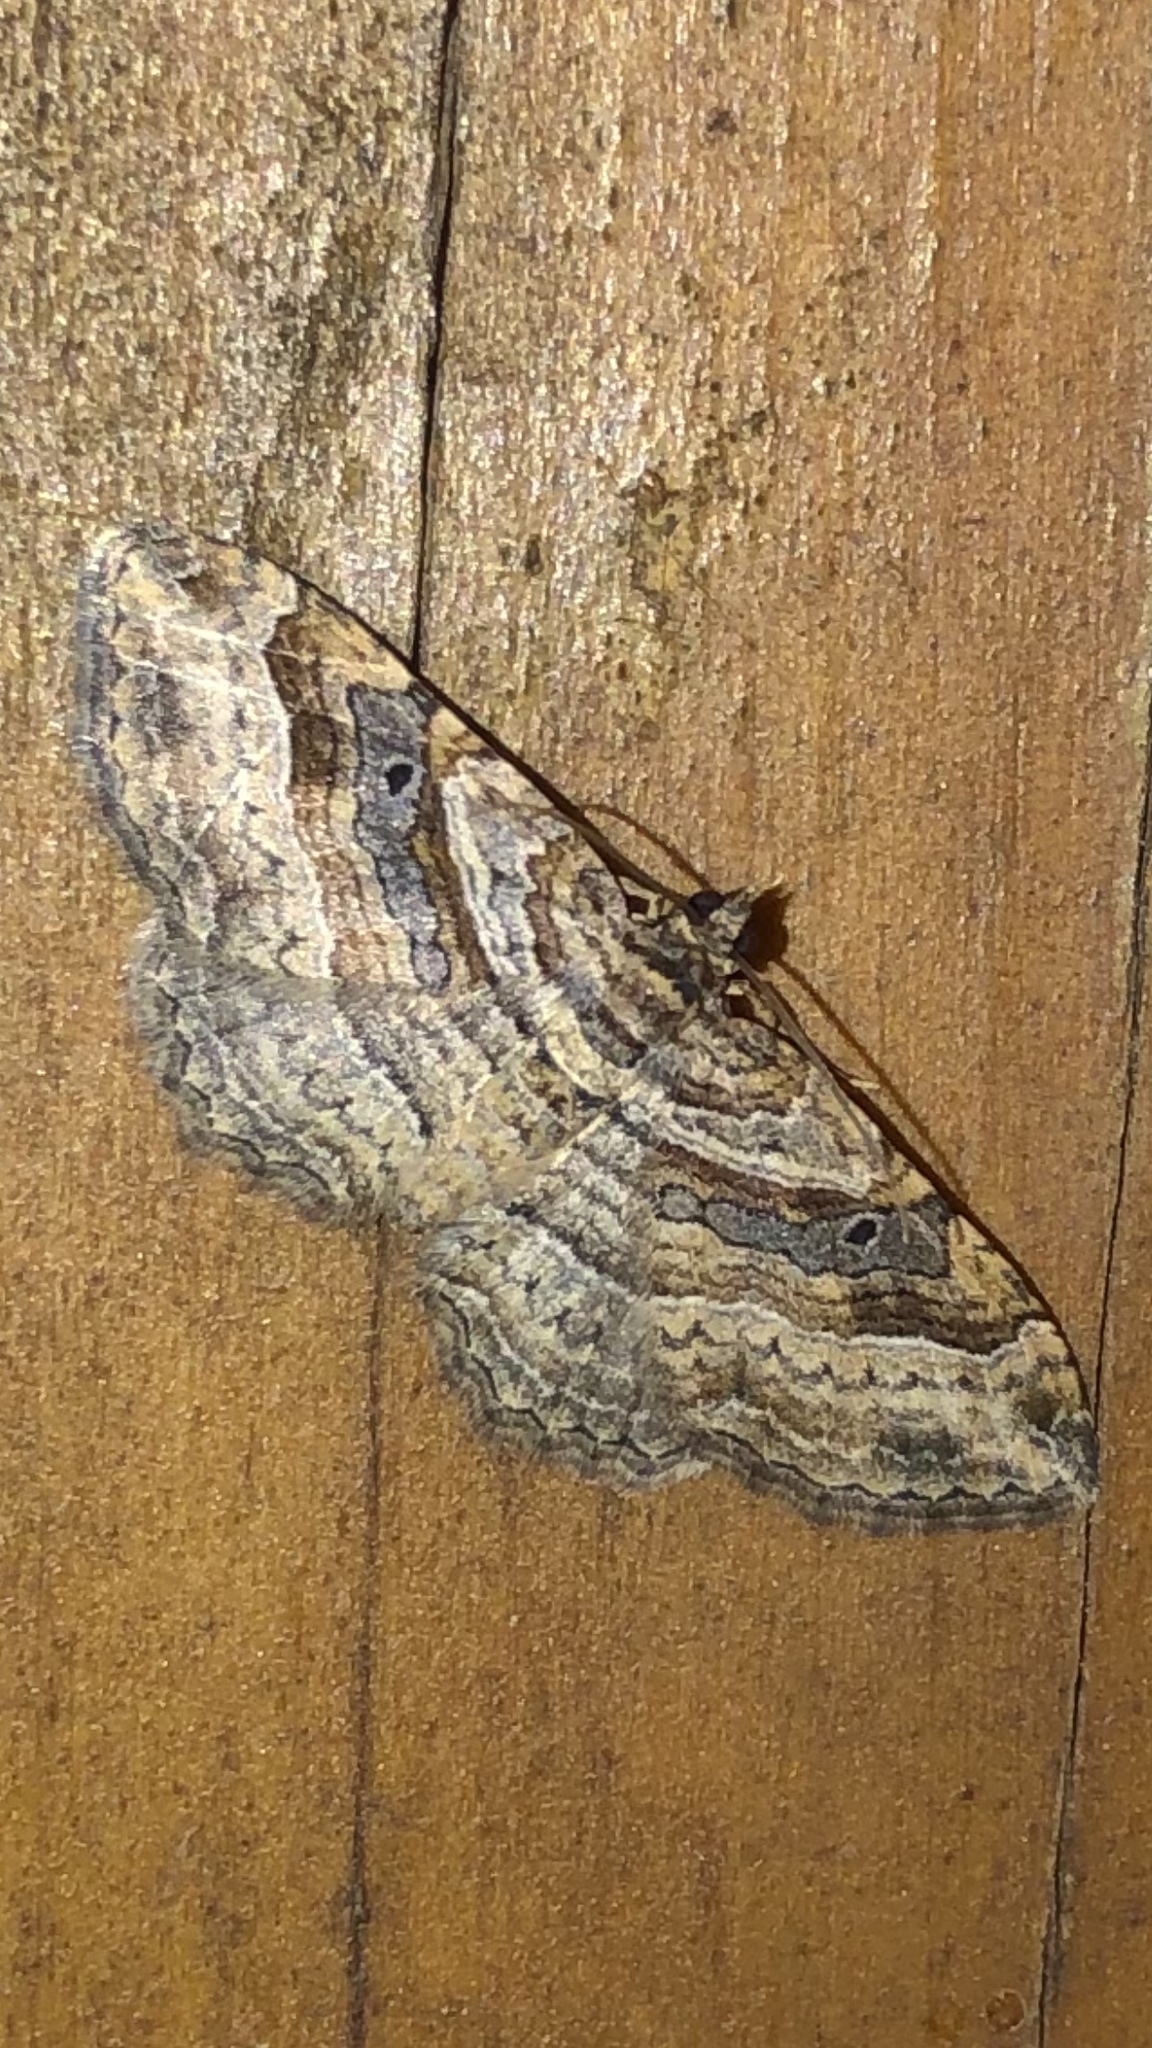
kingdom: Animalia
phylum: Arthropoda
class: Insecta
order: Lepidoptera
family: Geometridae
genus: Costaconvexa
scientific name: Costaconvexa centrostrigaria
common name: Bent-line carpet
